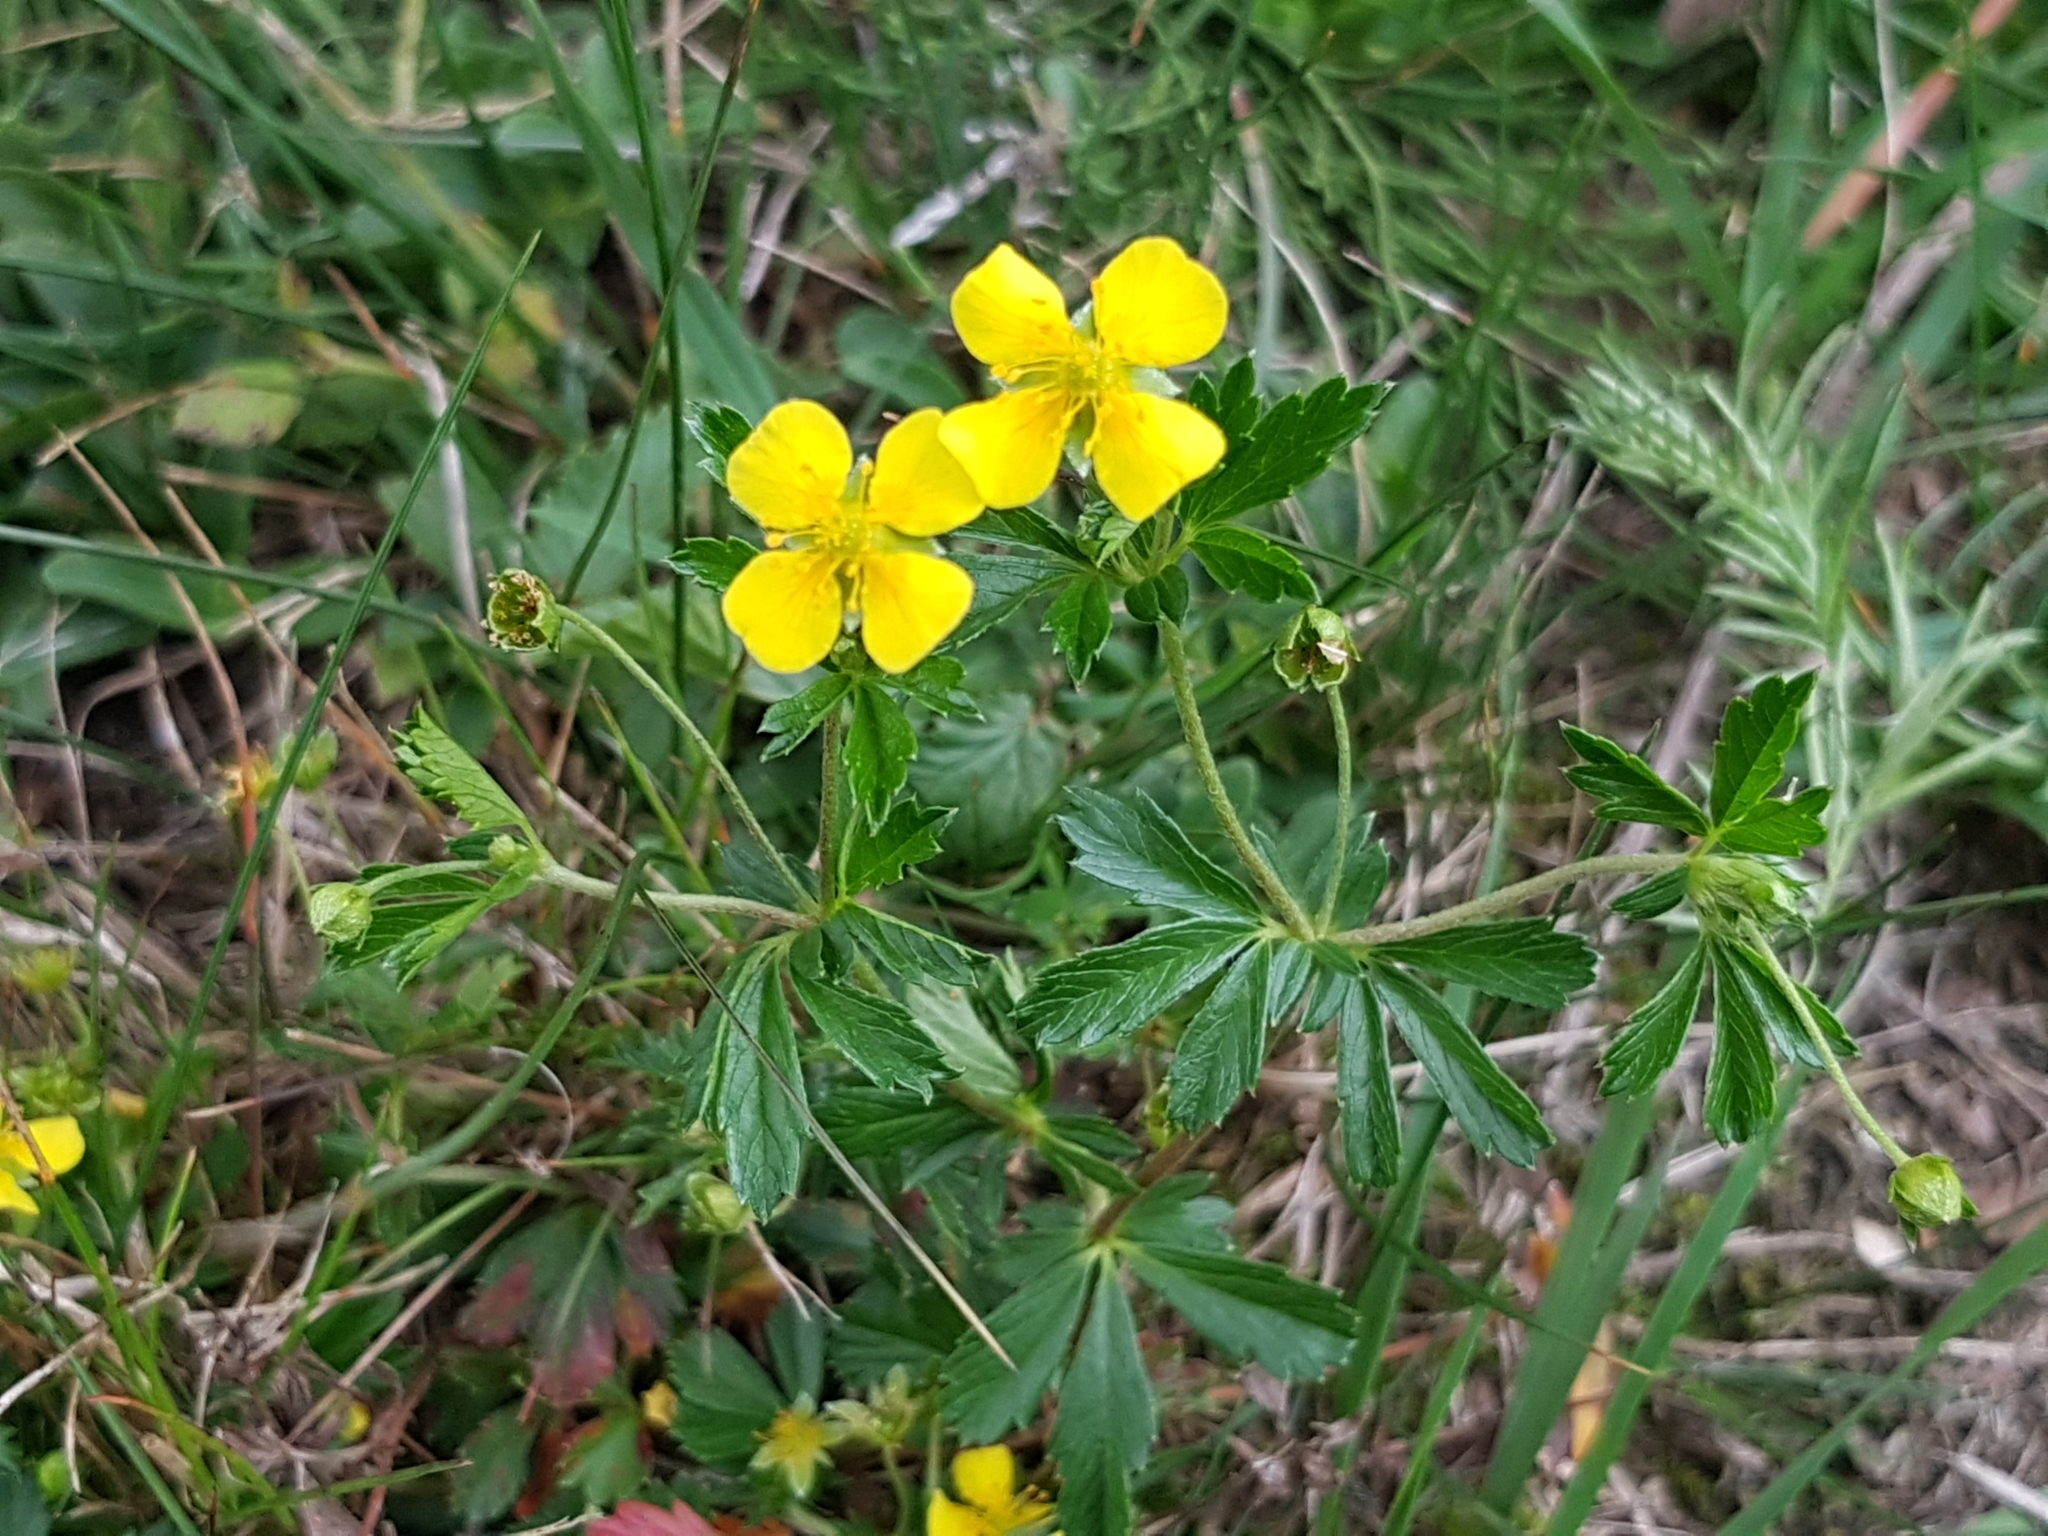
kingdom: Plantae
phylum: Tracheophyta
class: Magnoliopsida
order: Rosales
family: Rosaceae
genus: Potentilla
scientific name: Potentilla erecta
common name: Tormentil
